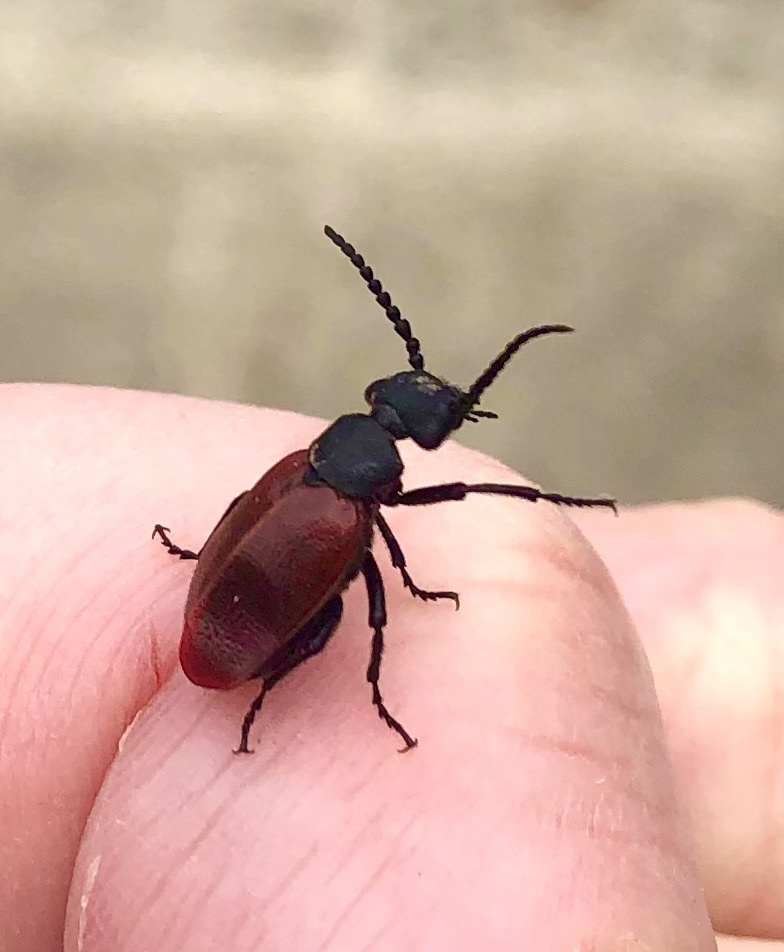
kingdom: Animalia
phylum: Arthropoda
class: Insecta
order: Coleoptera
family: Meloidae
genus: Tricrania
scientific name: Tricrania sanguinipennis
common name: Blood-winged blister beetle
